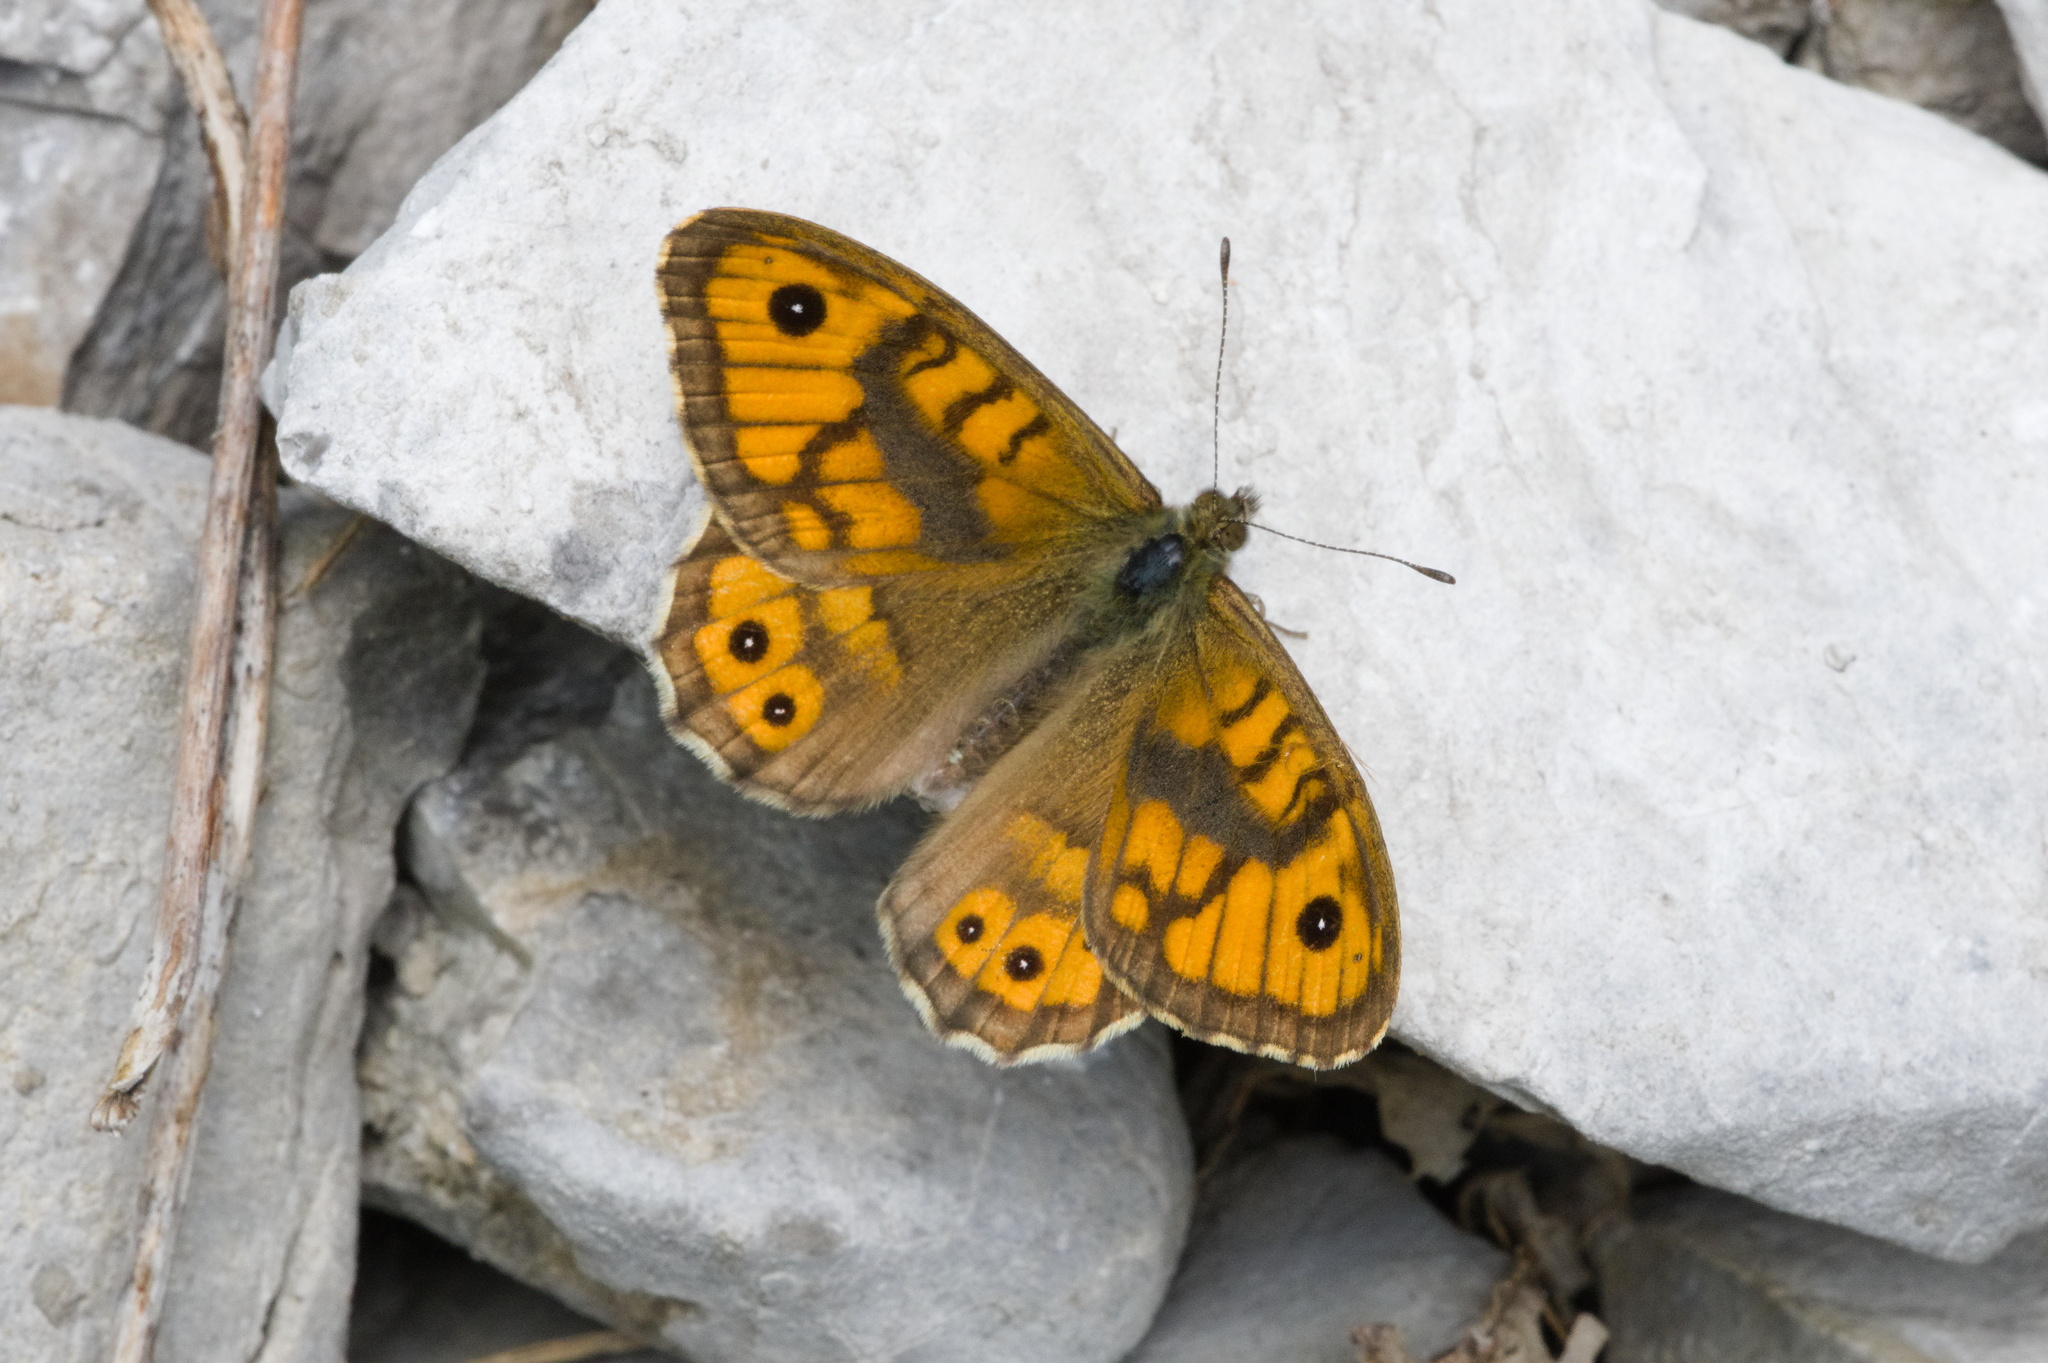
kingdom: Animalia
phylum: Arthropoda
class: Insecta
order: Lepidoptera
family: Nymphalidae
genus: Pararge
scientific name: Pararge Lasiommata megera
